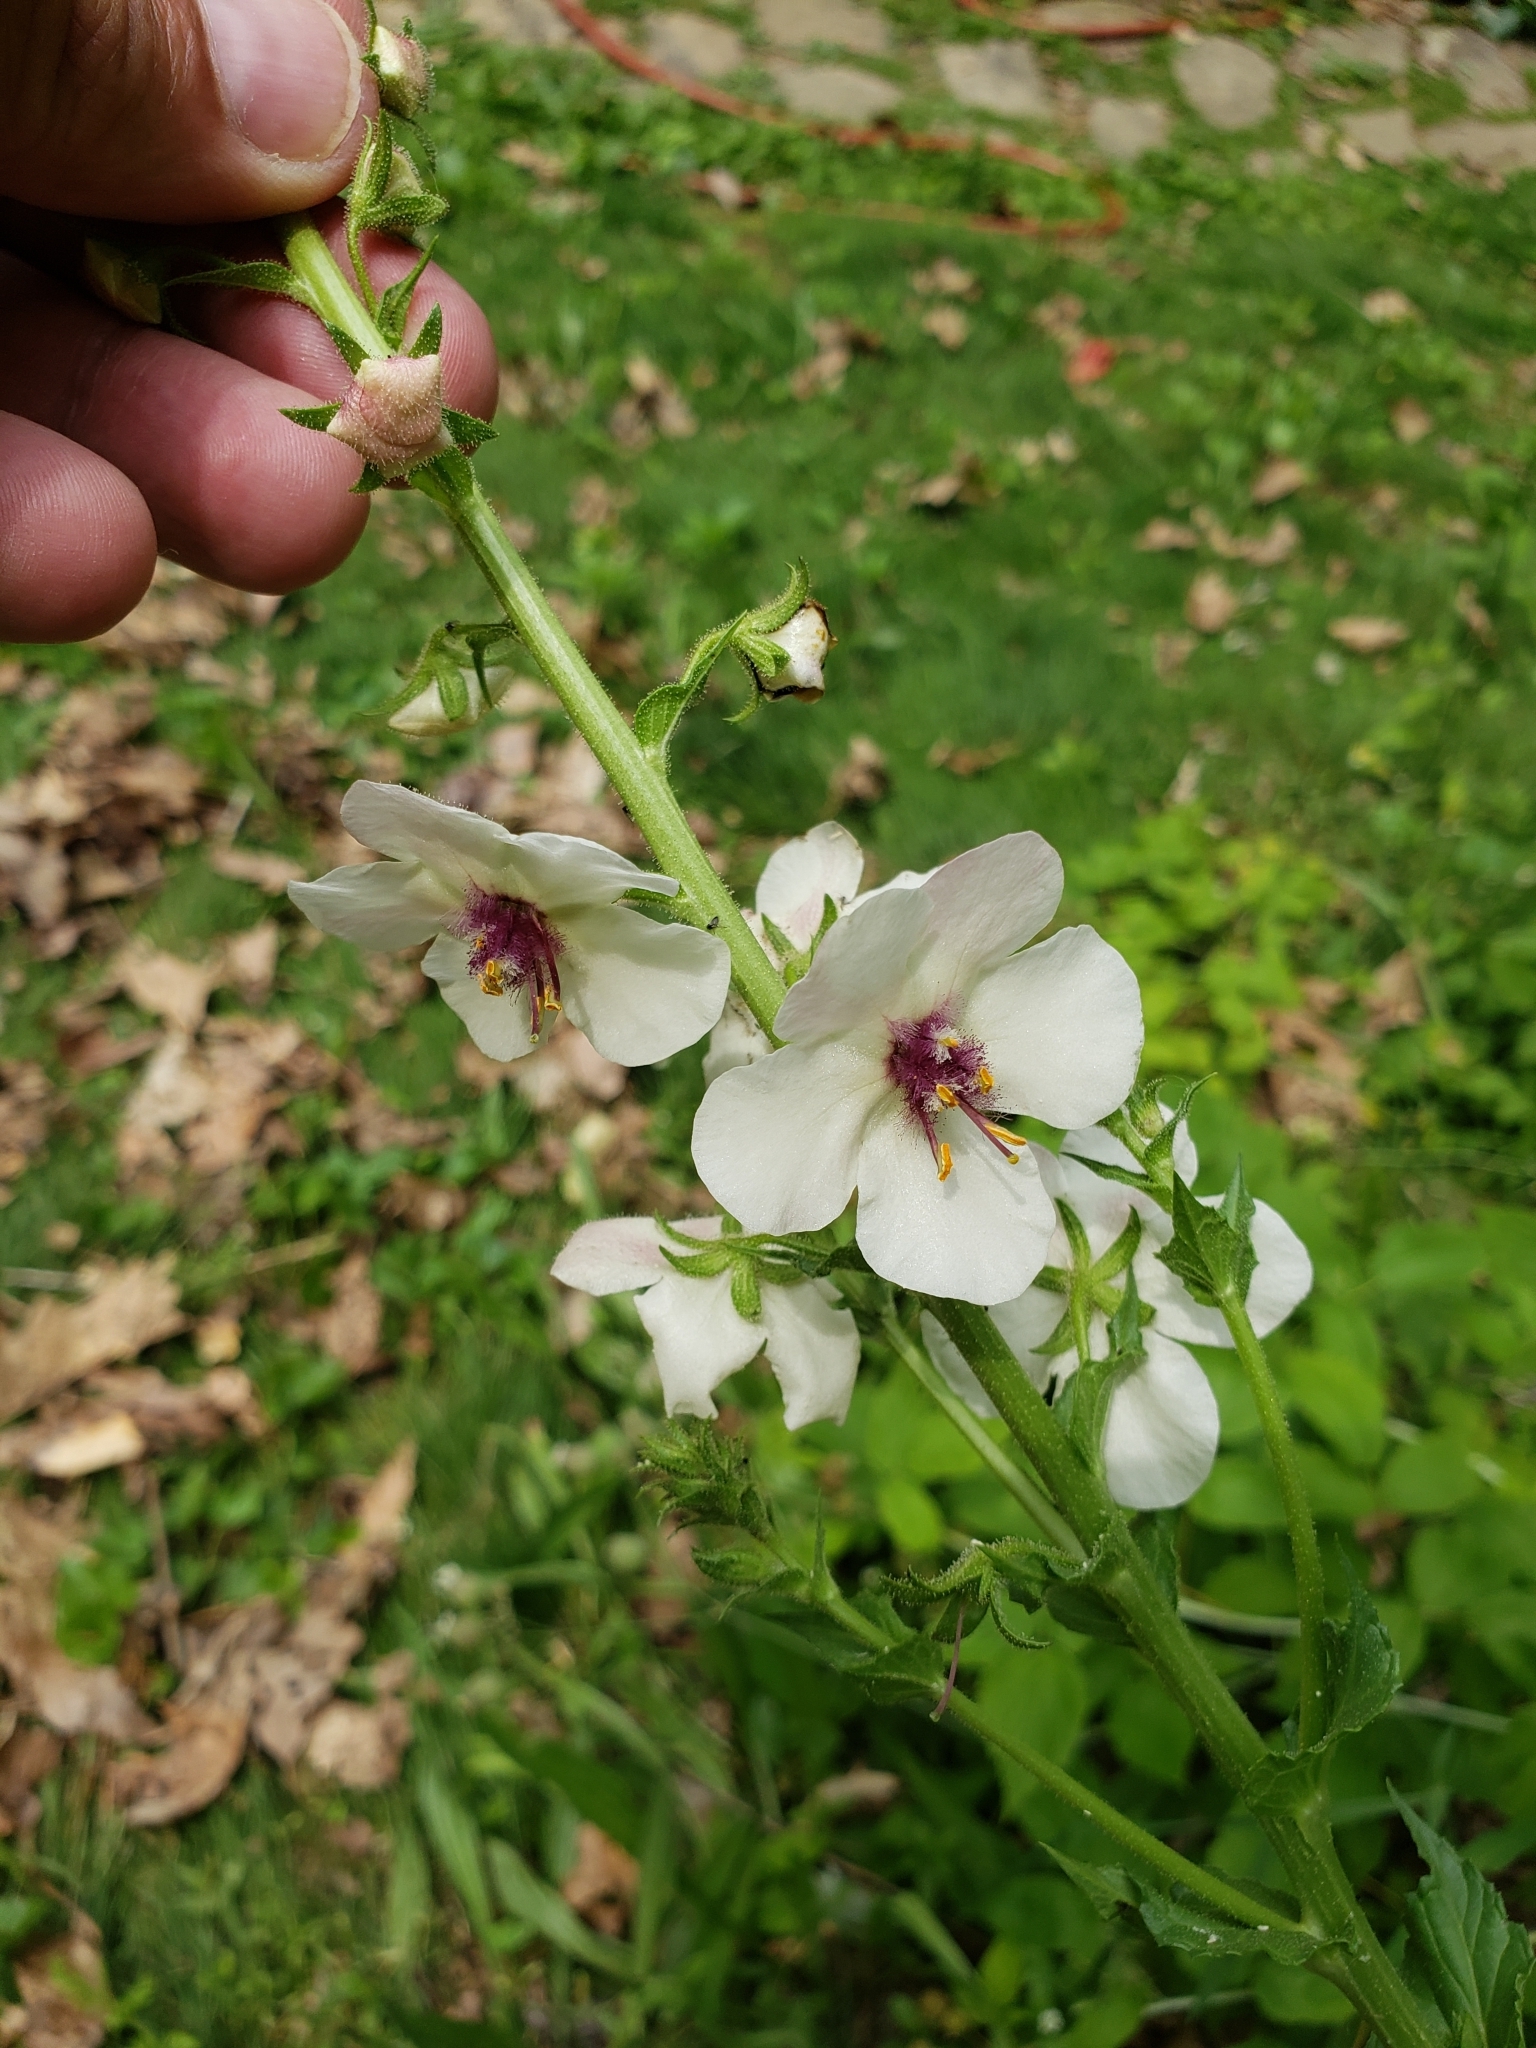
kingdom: Plantae
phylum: Tracheophyta
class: Magnoliopsida
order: Lamiales
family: Scrophulariaceae
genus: Verbascum
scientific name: Verbascum blattaria
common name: Moth mullein
